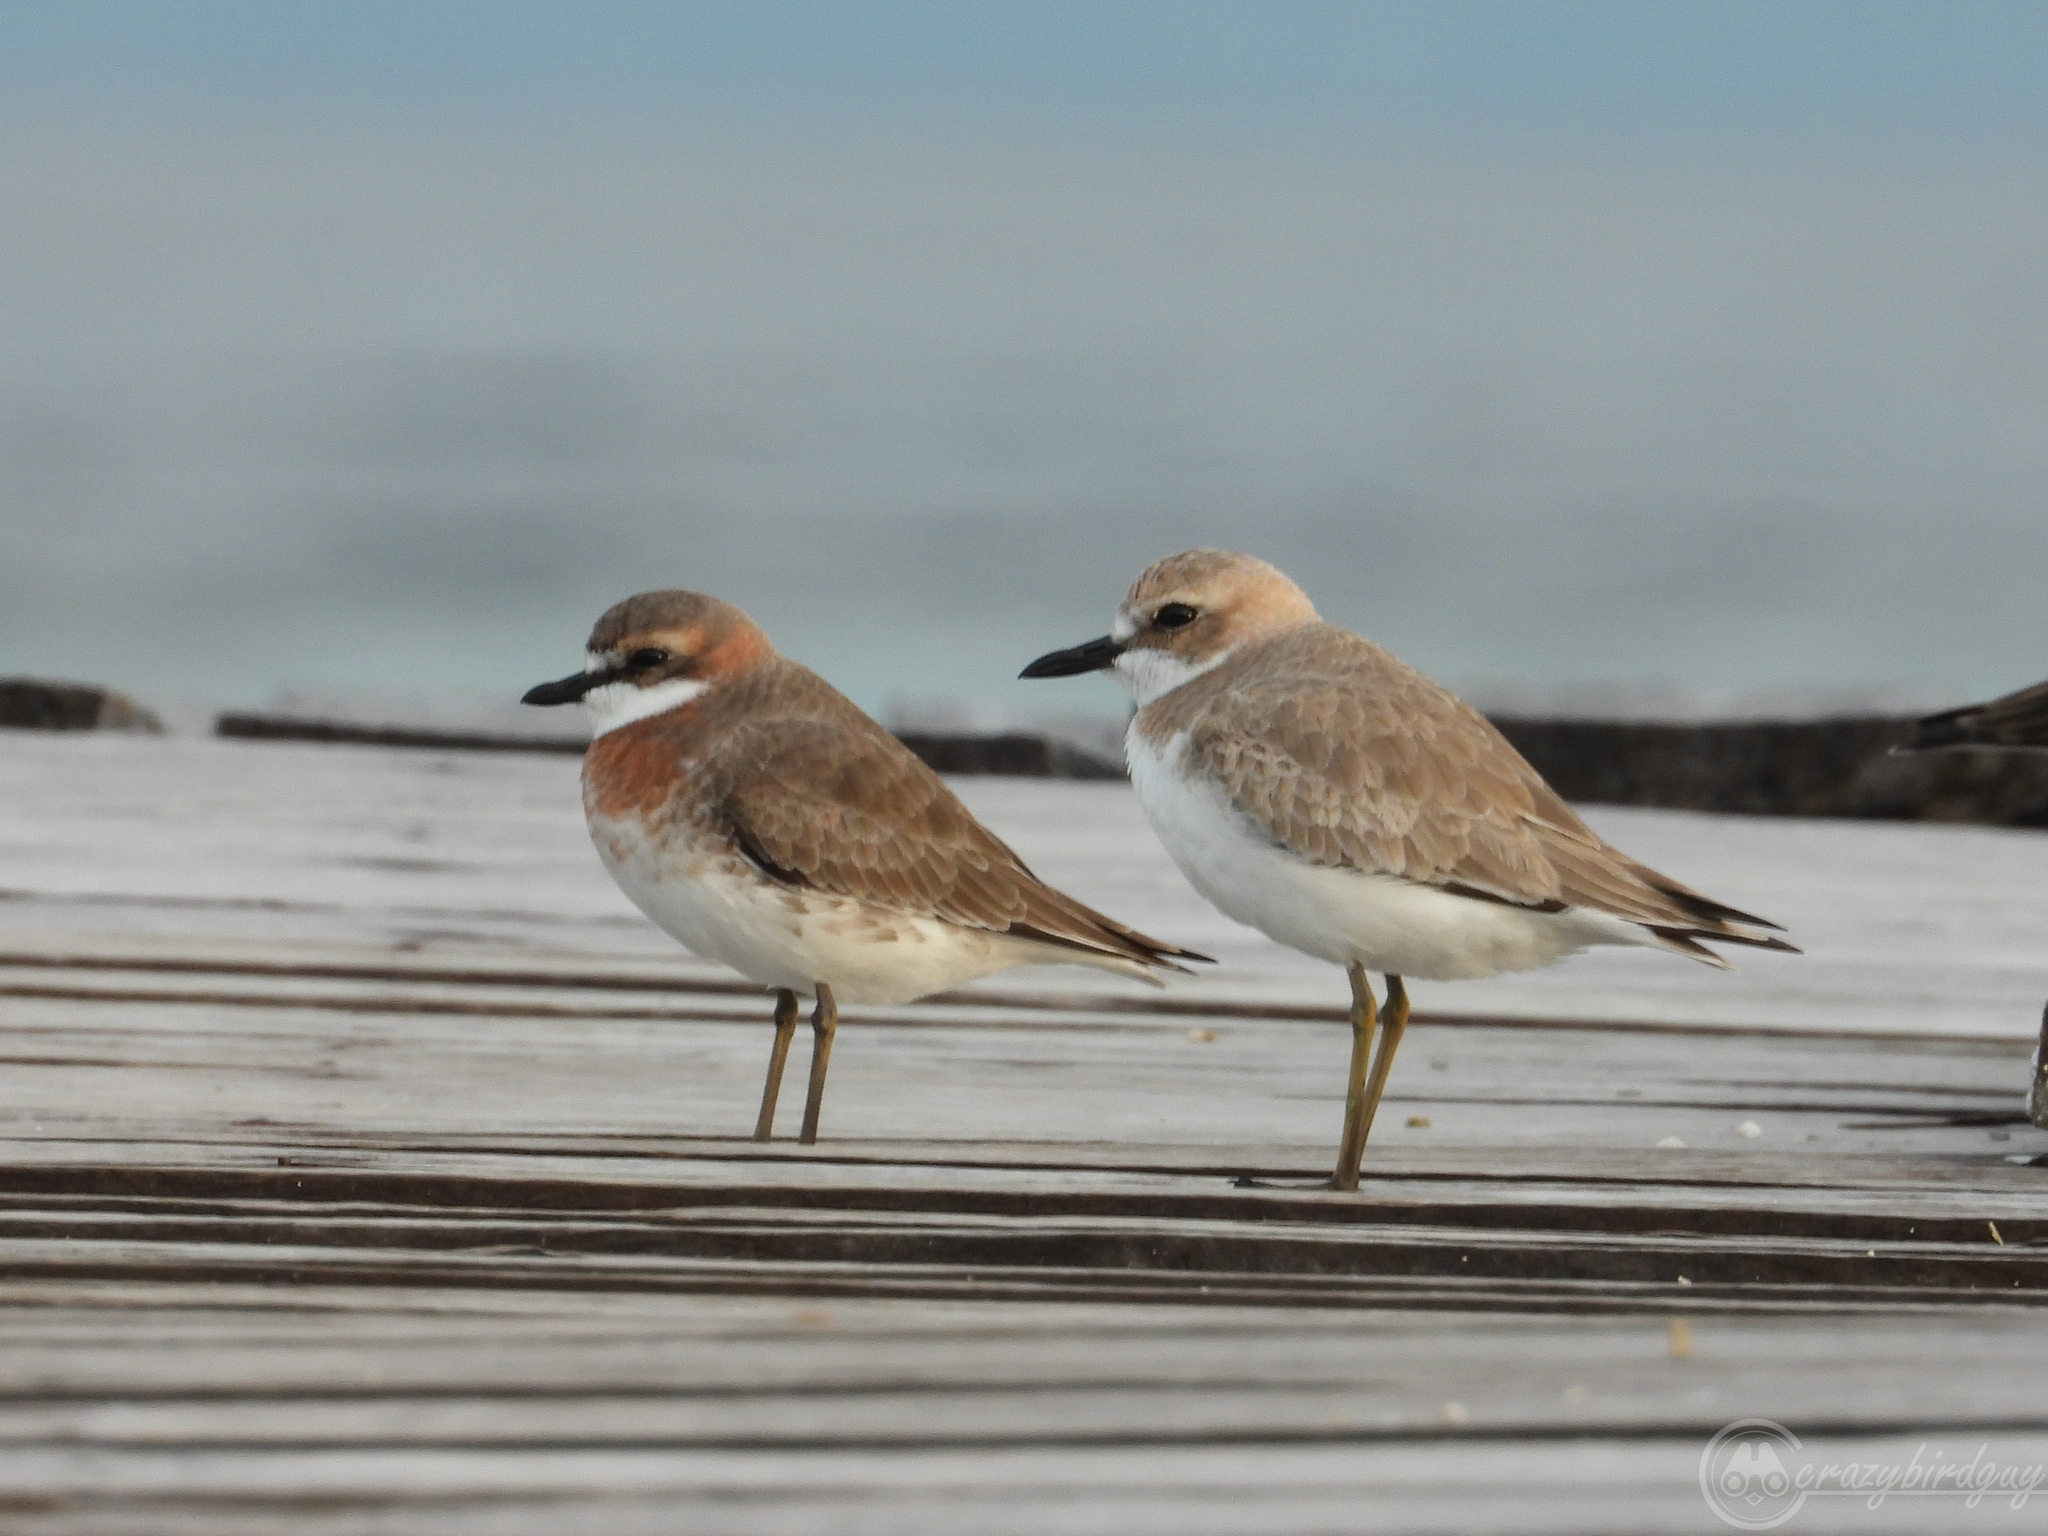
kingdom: Animalia
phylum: Chordata
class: Aves
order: Charadriiformes
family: Charadriidae
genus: Charadrius
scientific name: Charadrius leschenaultii
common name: Greater sand plover
